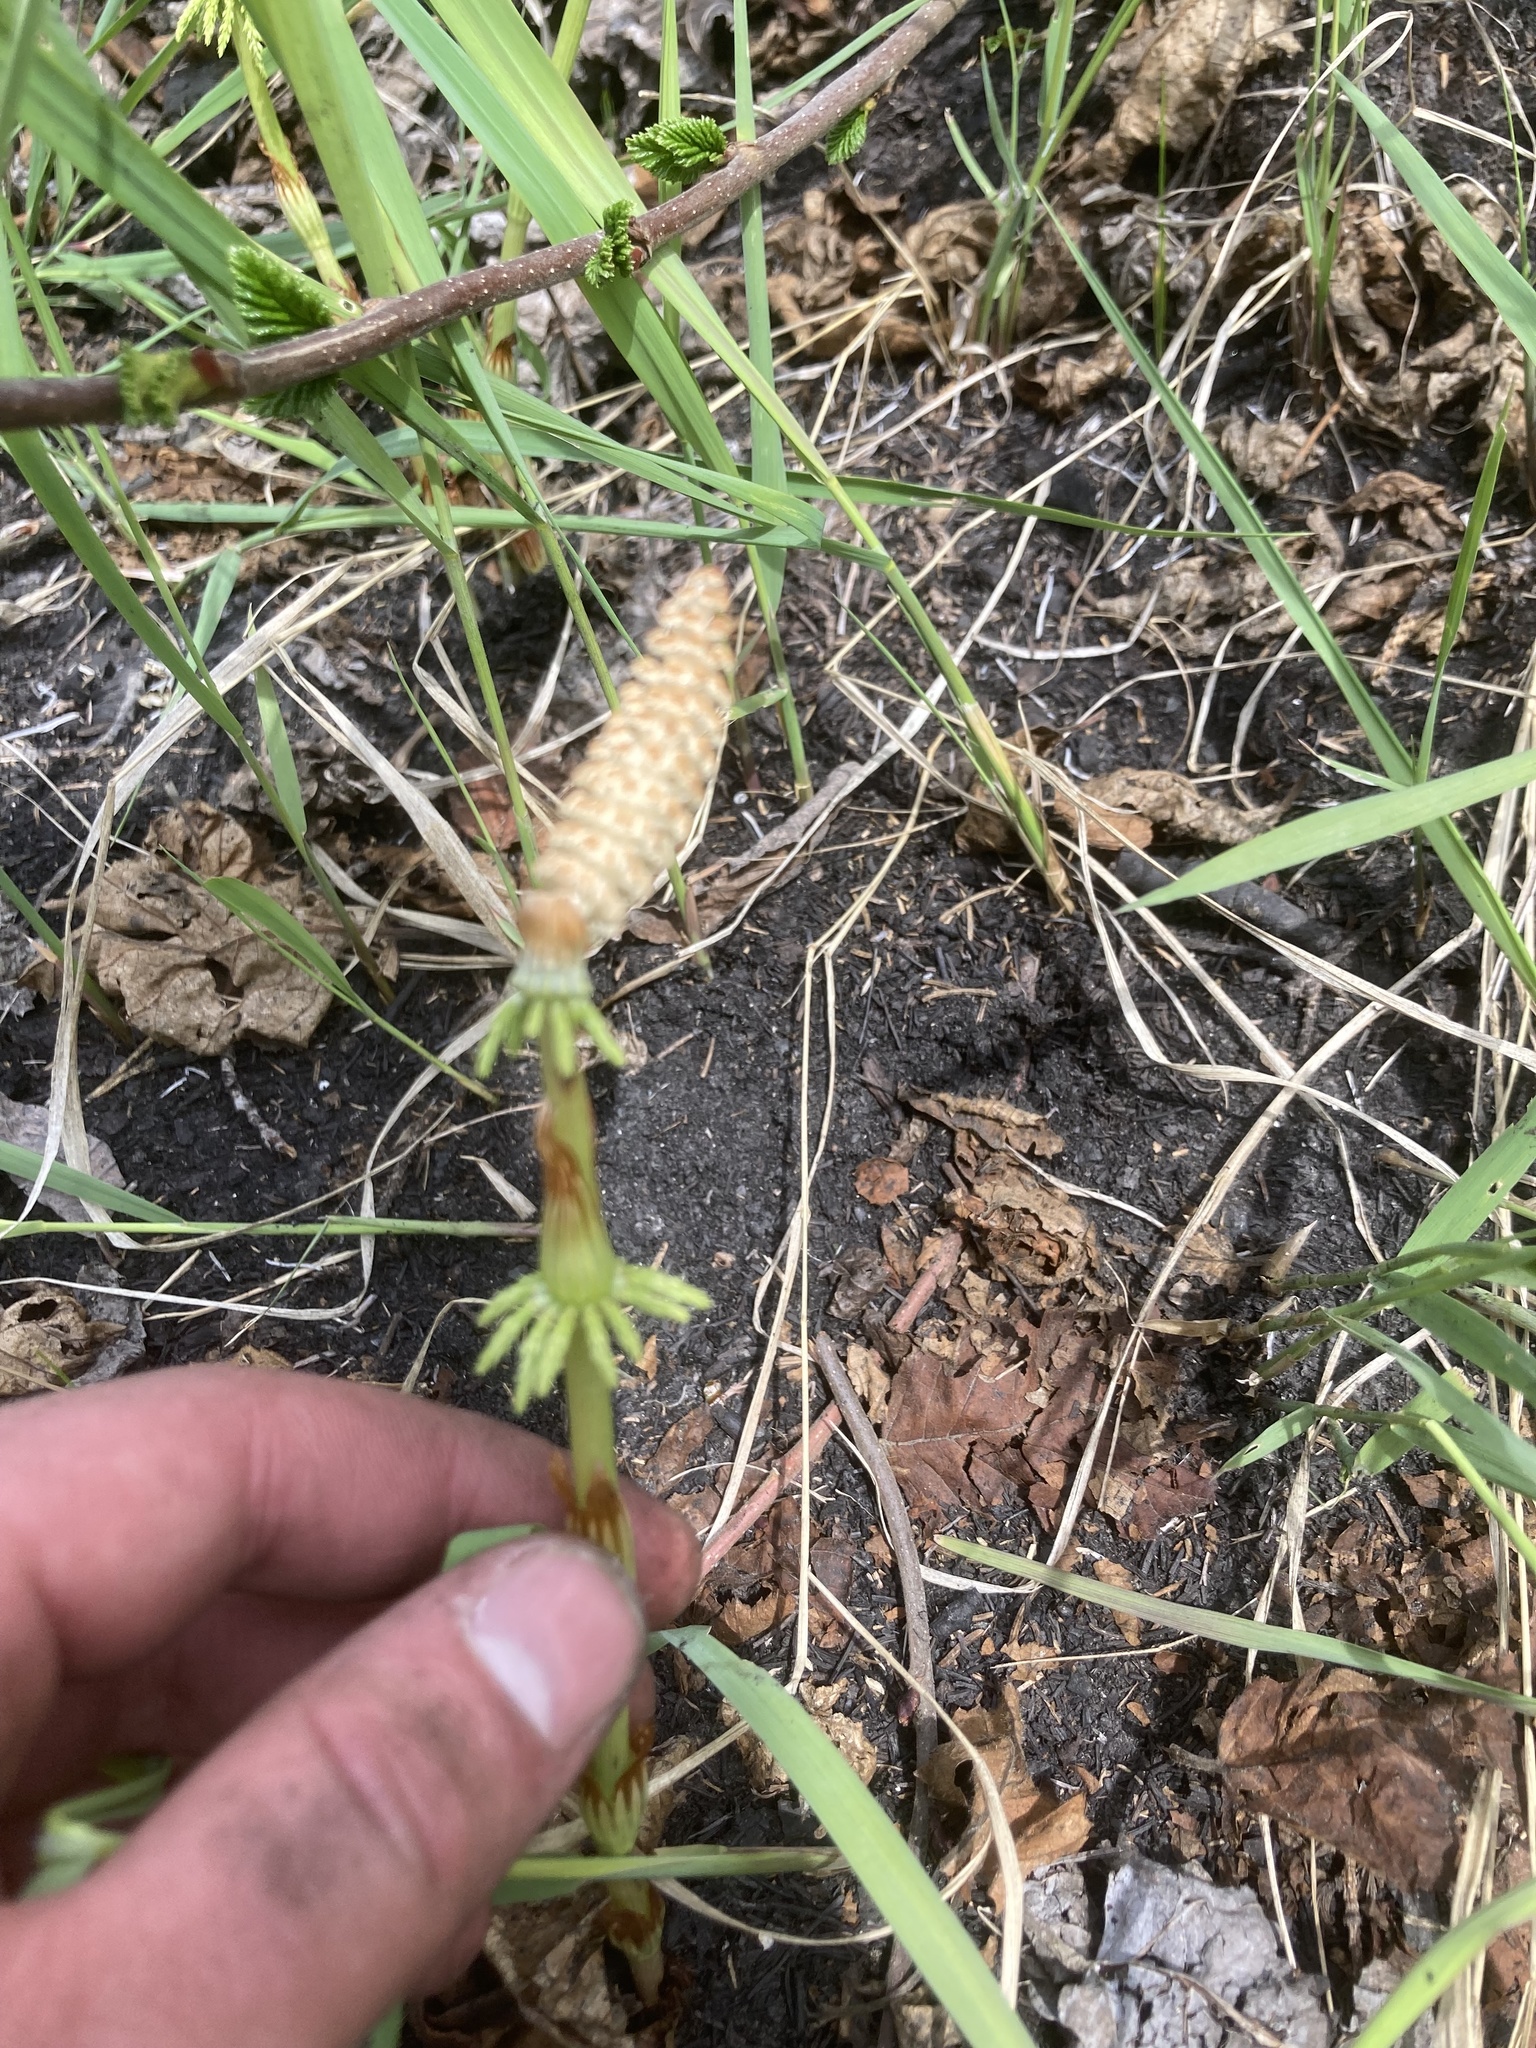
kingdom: Plantae
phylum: Tracheophyta
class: Polypodiopsida
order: Equisetales
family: Equisetaceae
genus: Equisetum
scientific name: Equisetum sylvaticum
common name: Wood horsetail
